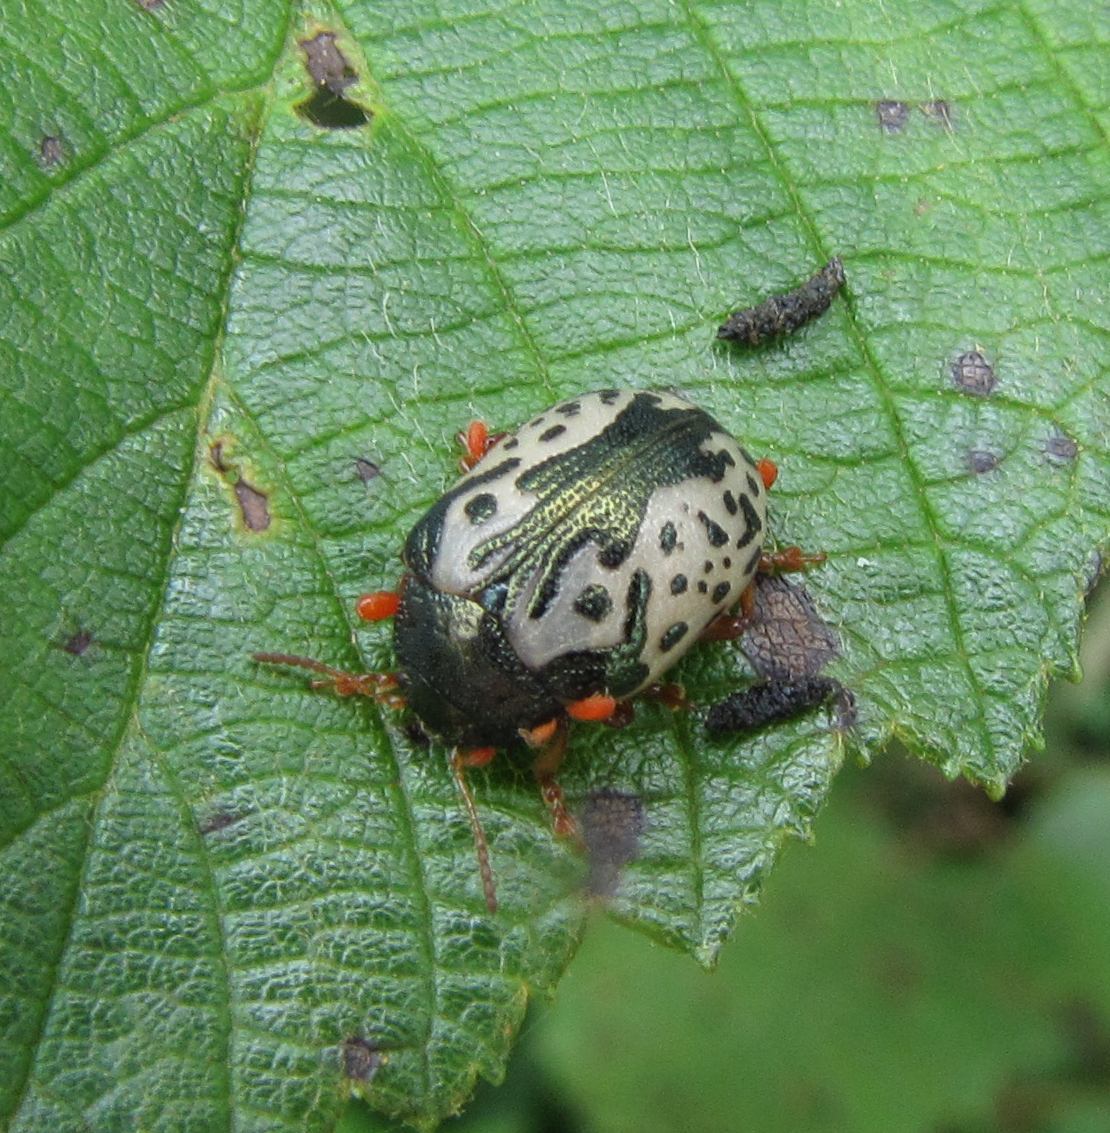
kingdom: Animalia
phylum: Arthropoda
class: Insecta
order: Coleoptera
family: Chrysomelidae
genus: Calligrapha
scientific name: Calligrapha confluens
